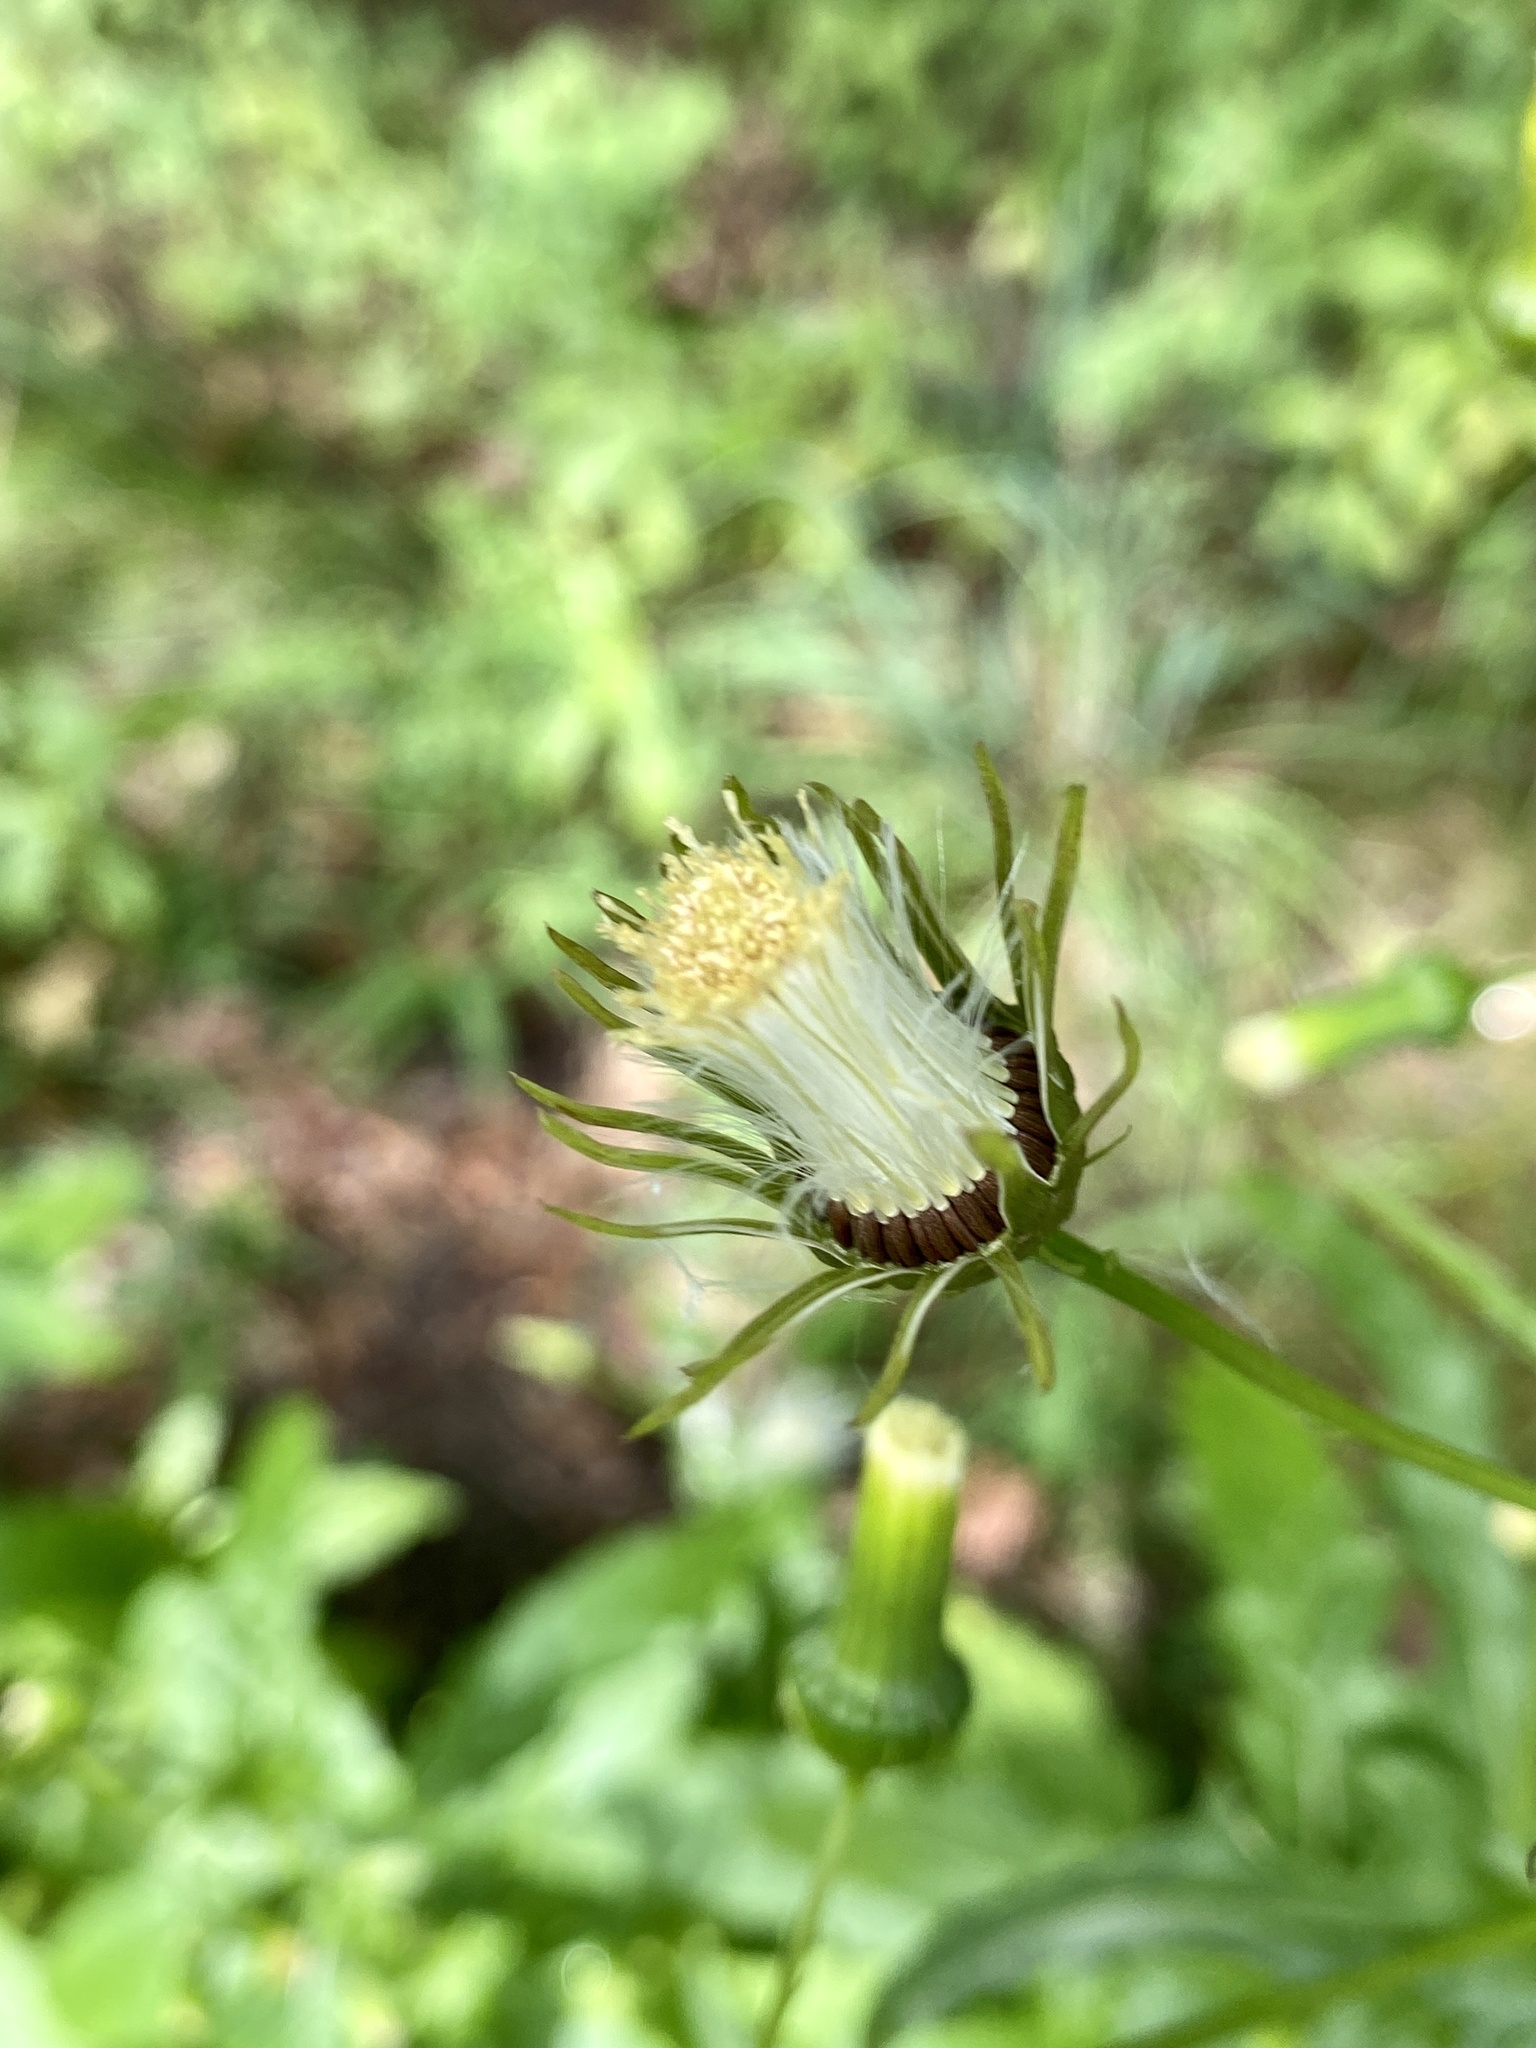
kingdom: Plantae
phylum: Tracheophyta
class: Magnoliopsida
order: Asterales
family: Asteraceae
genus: Erechtites
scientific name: Erechtites hieraciifolius
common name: American burnweed
